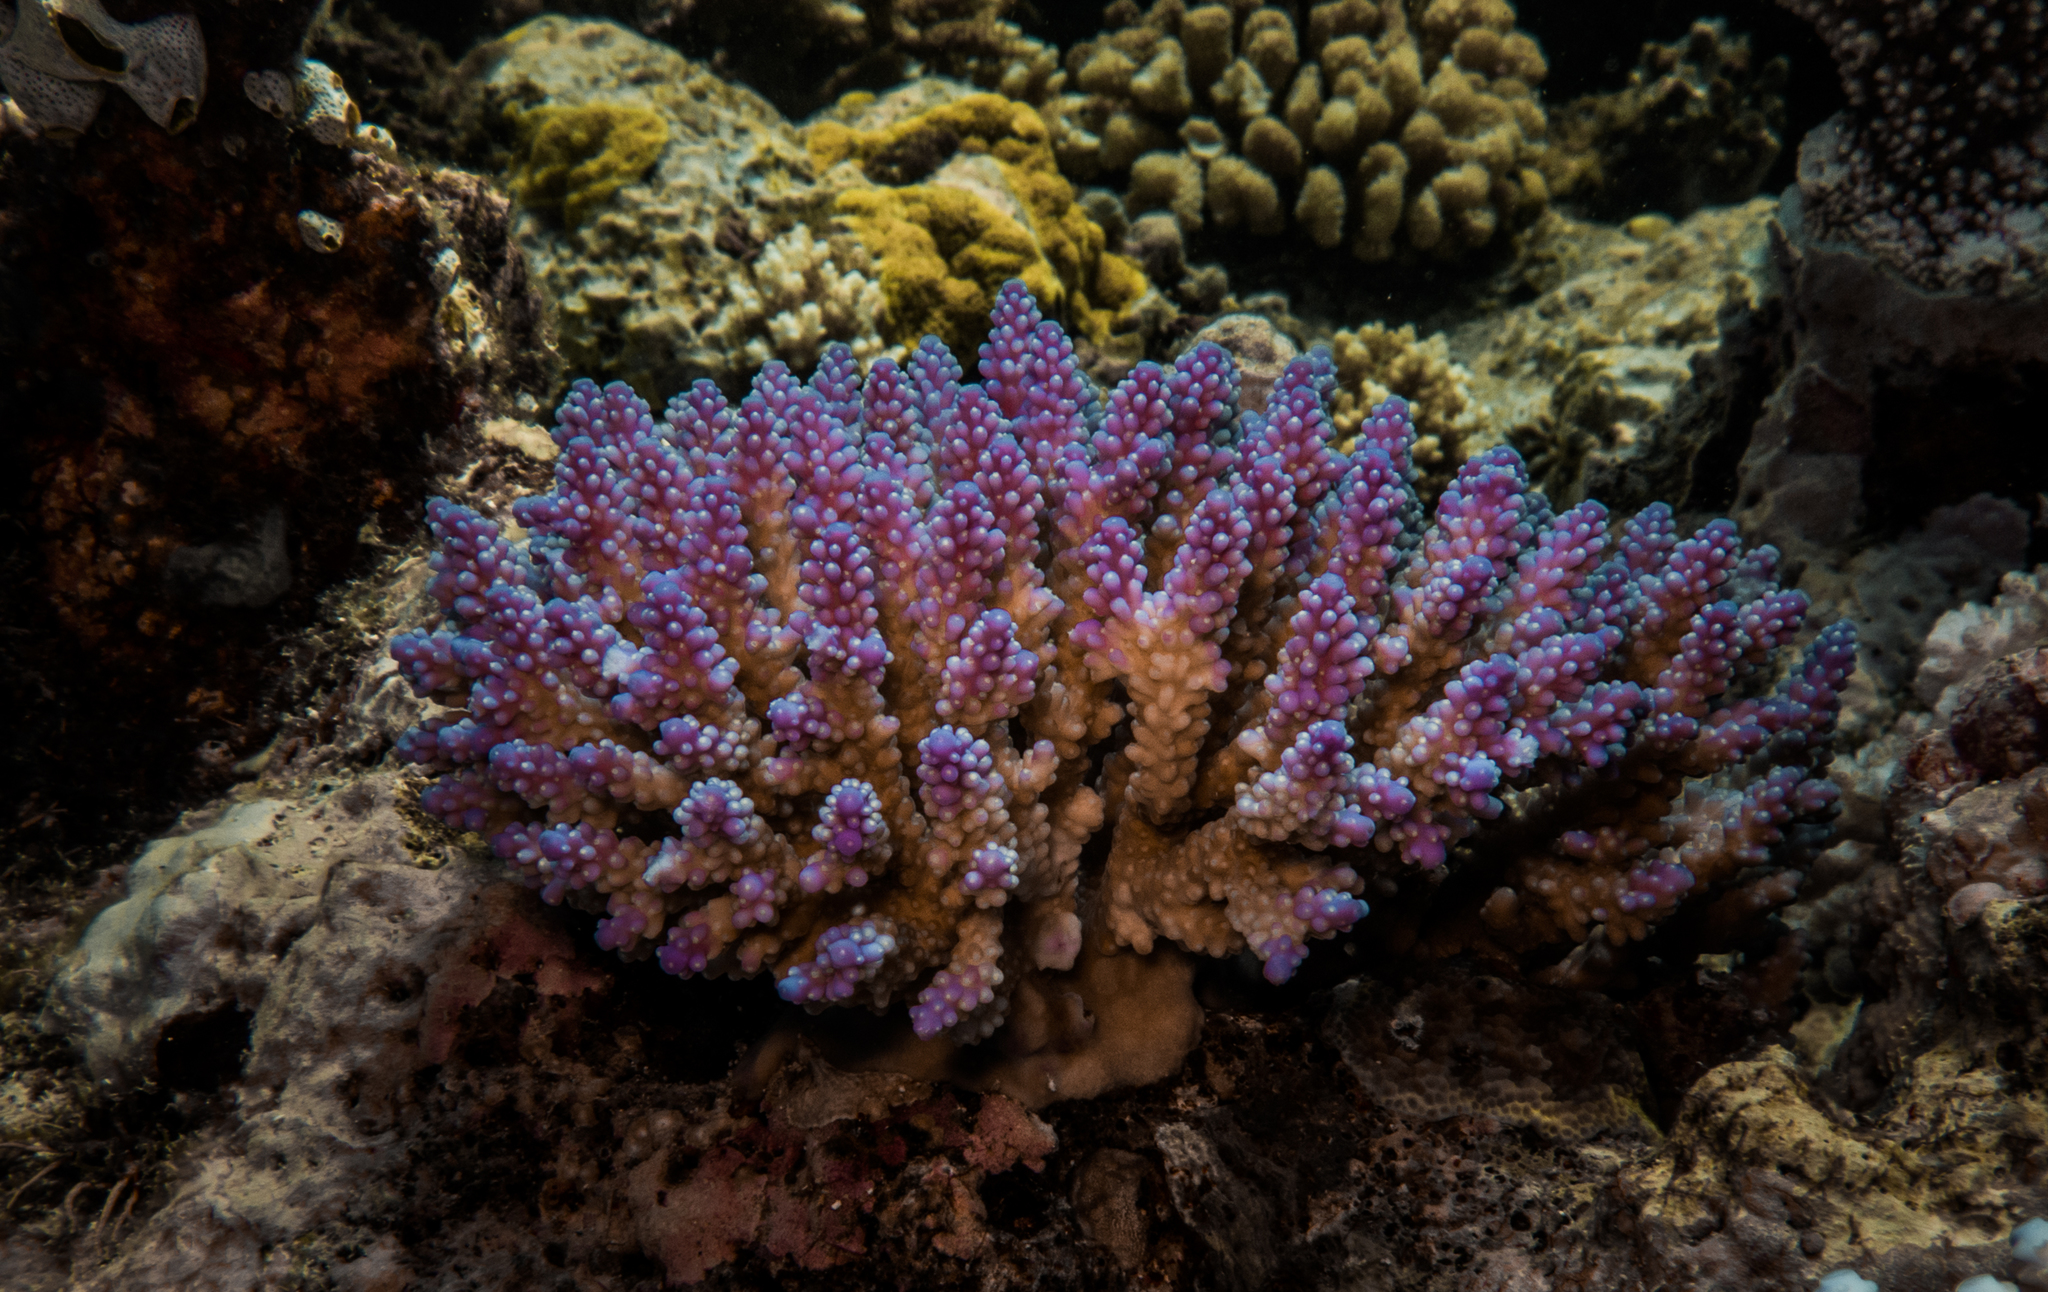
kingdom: Animalia
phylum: Cnidaria
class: Anthozoa
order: Scleractinia
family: Acroporidae
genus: Acropora
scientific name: Acropora valida
